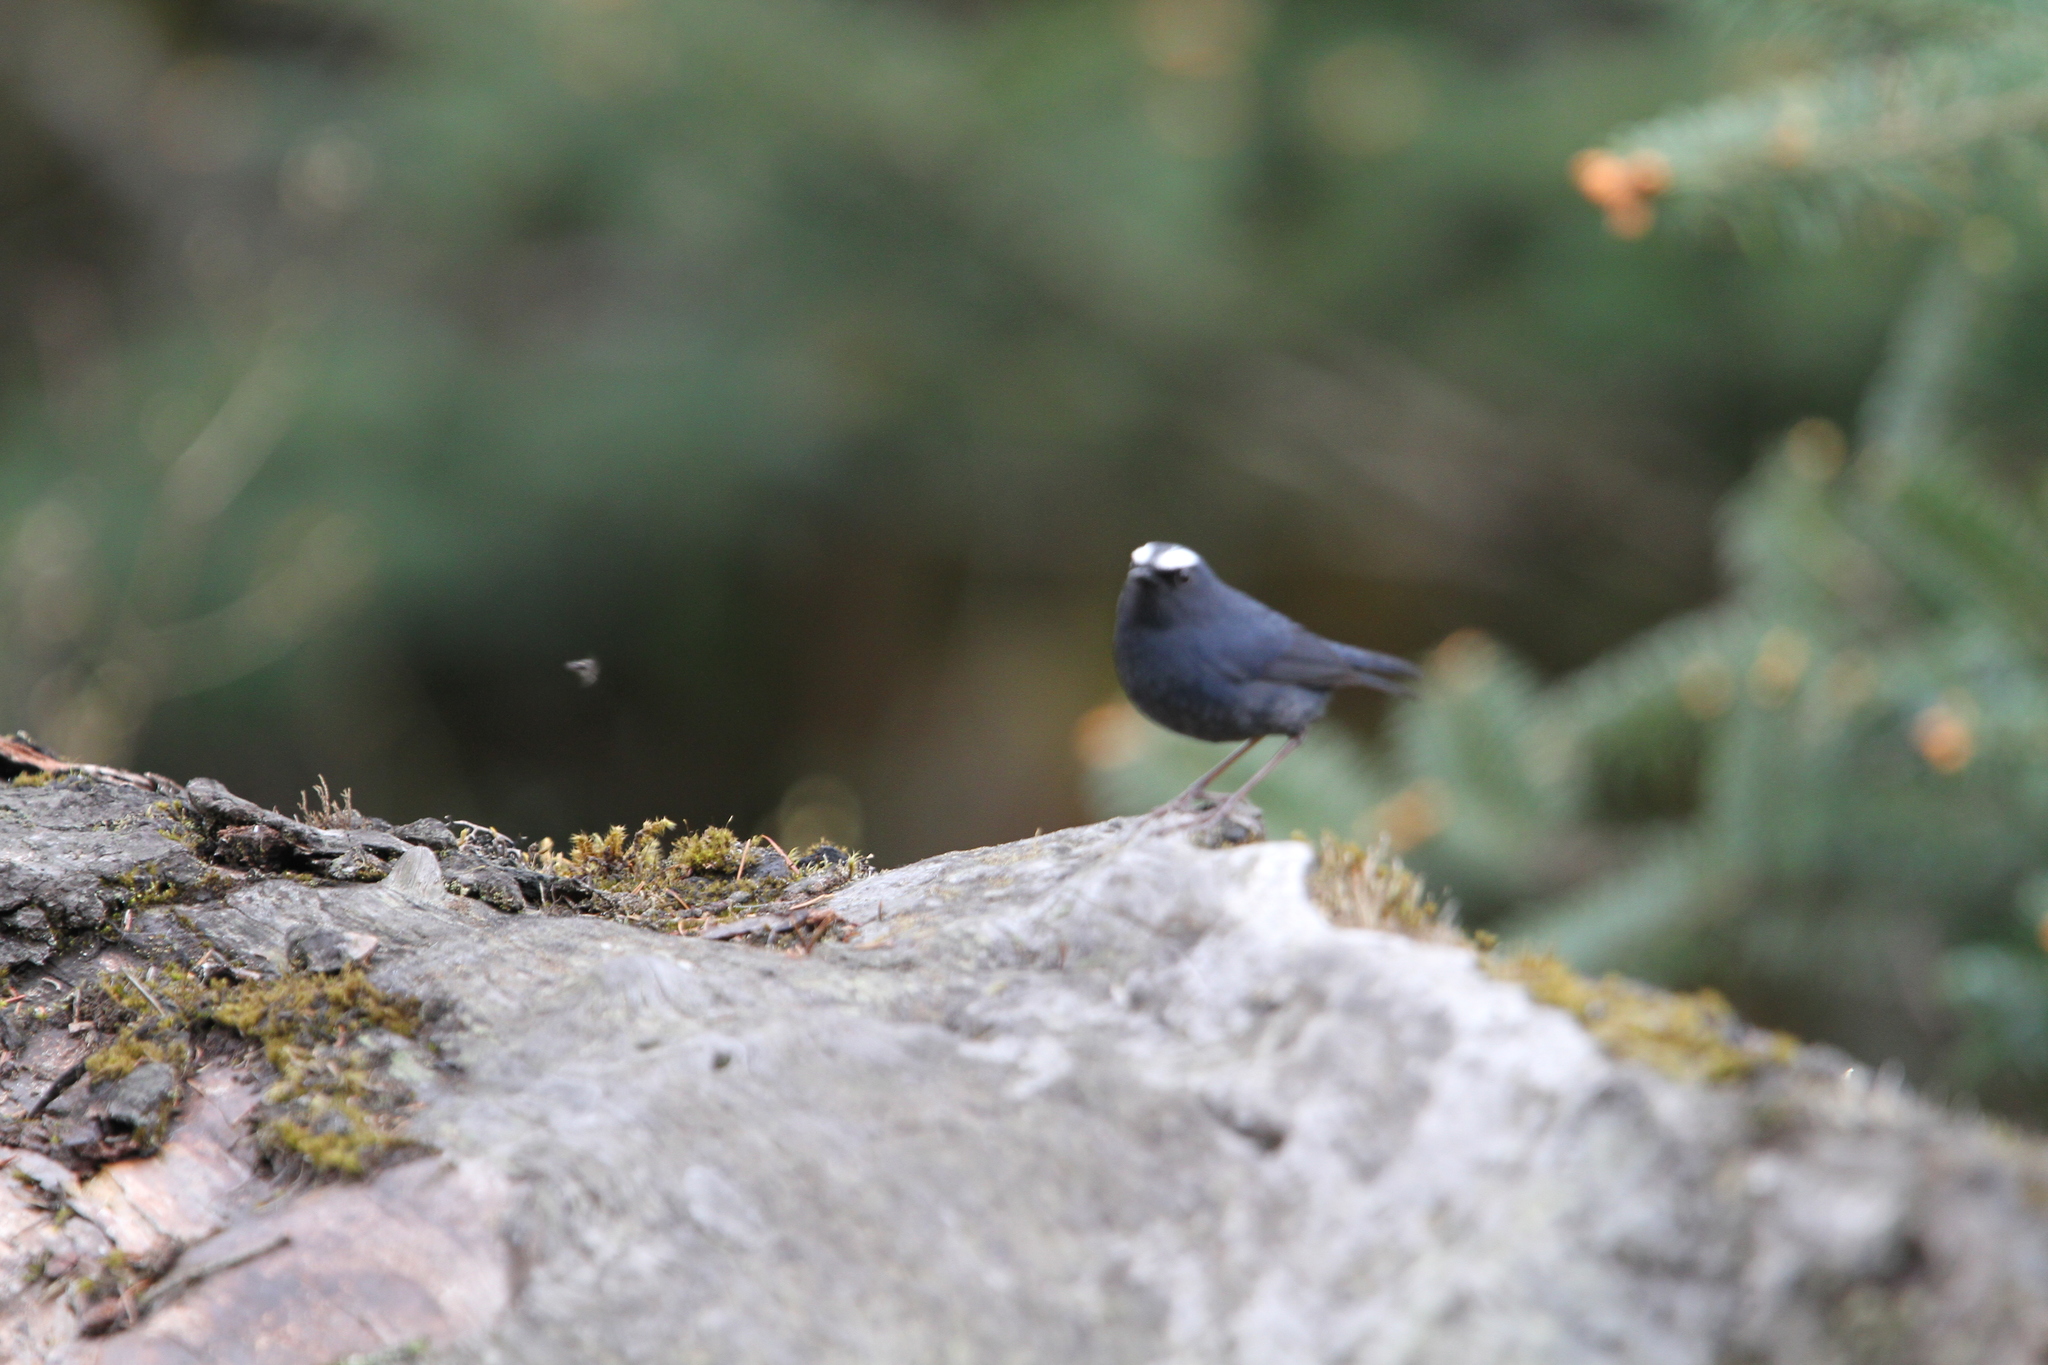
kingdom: Animalia
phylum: Chordata
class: Aves
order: Passeriformes
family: Muscicapidae
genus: Brachypteryx
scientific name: Brachypteryx montana
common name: White-browed shortwing
